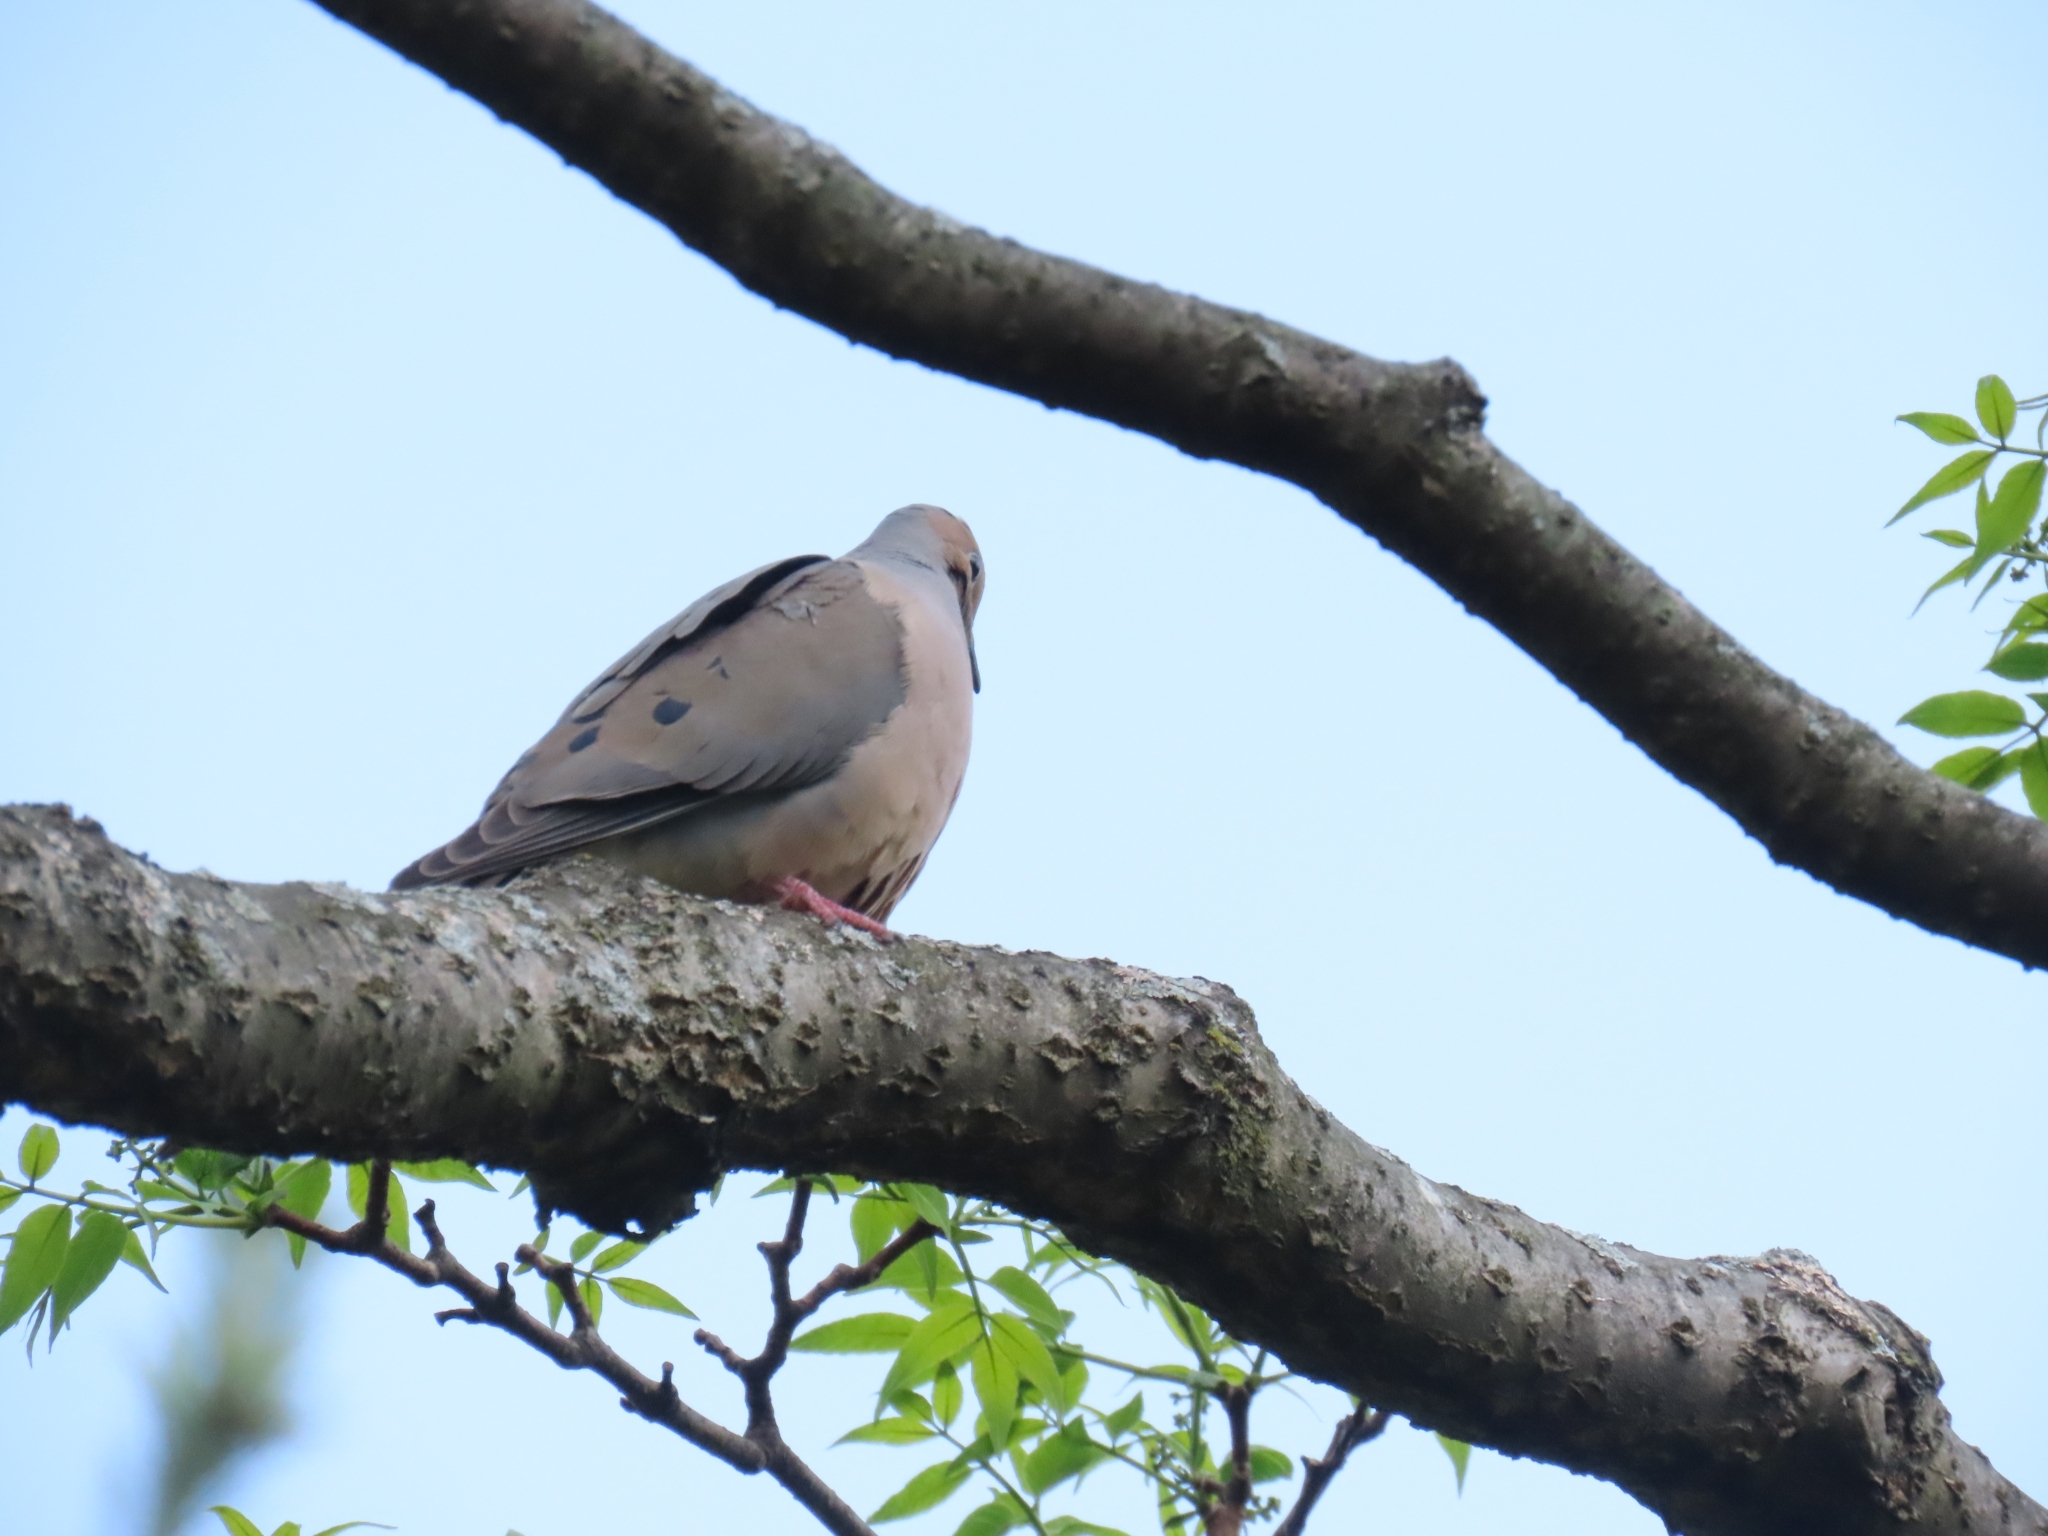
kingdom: Animalia
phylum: Chordata
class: Aves
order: Columbiformes
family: Columbidae
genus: Zenaida
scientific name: Zenaida macroura
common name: Mourning dove
